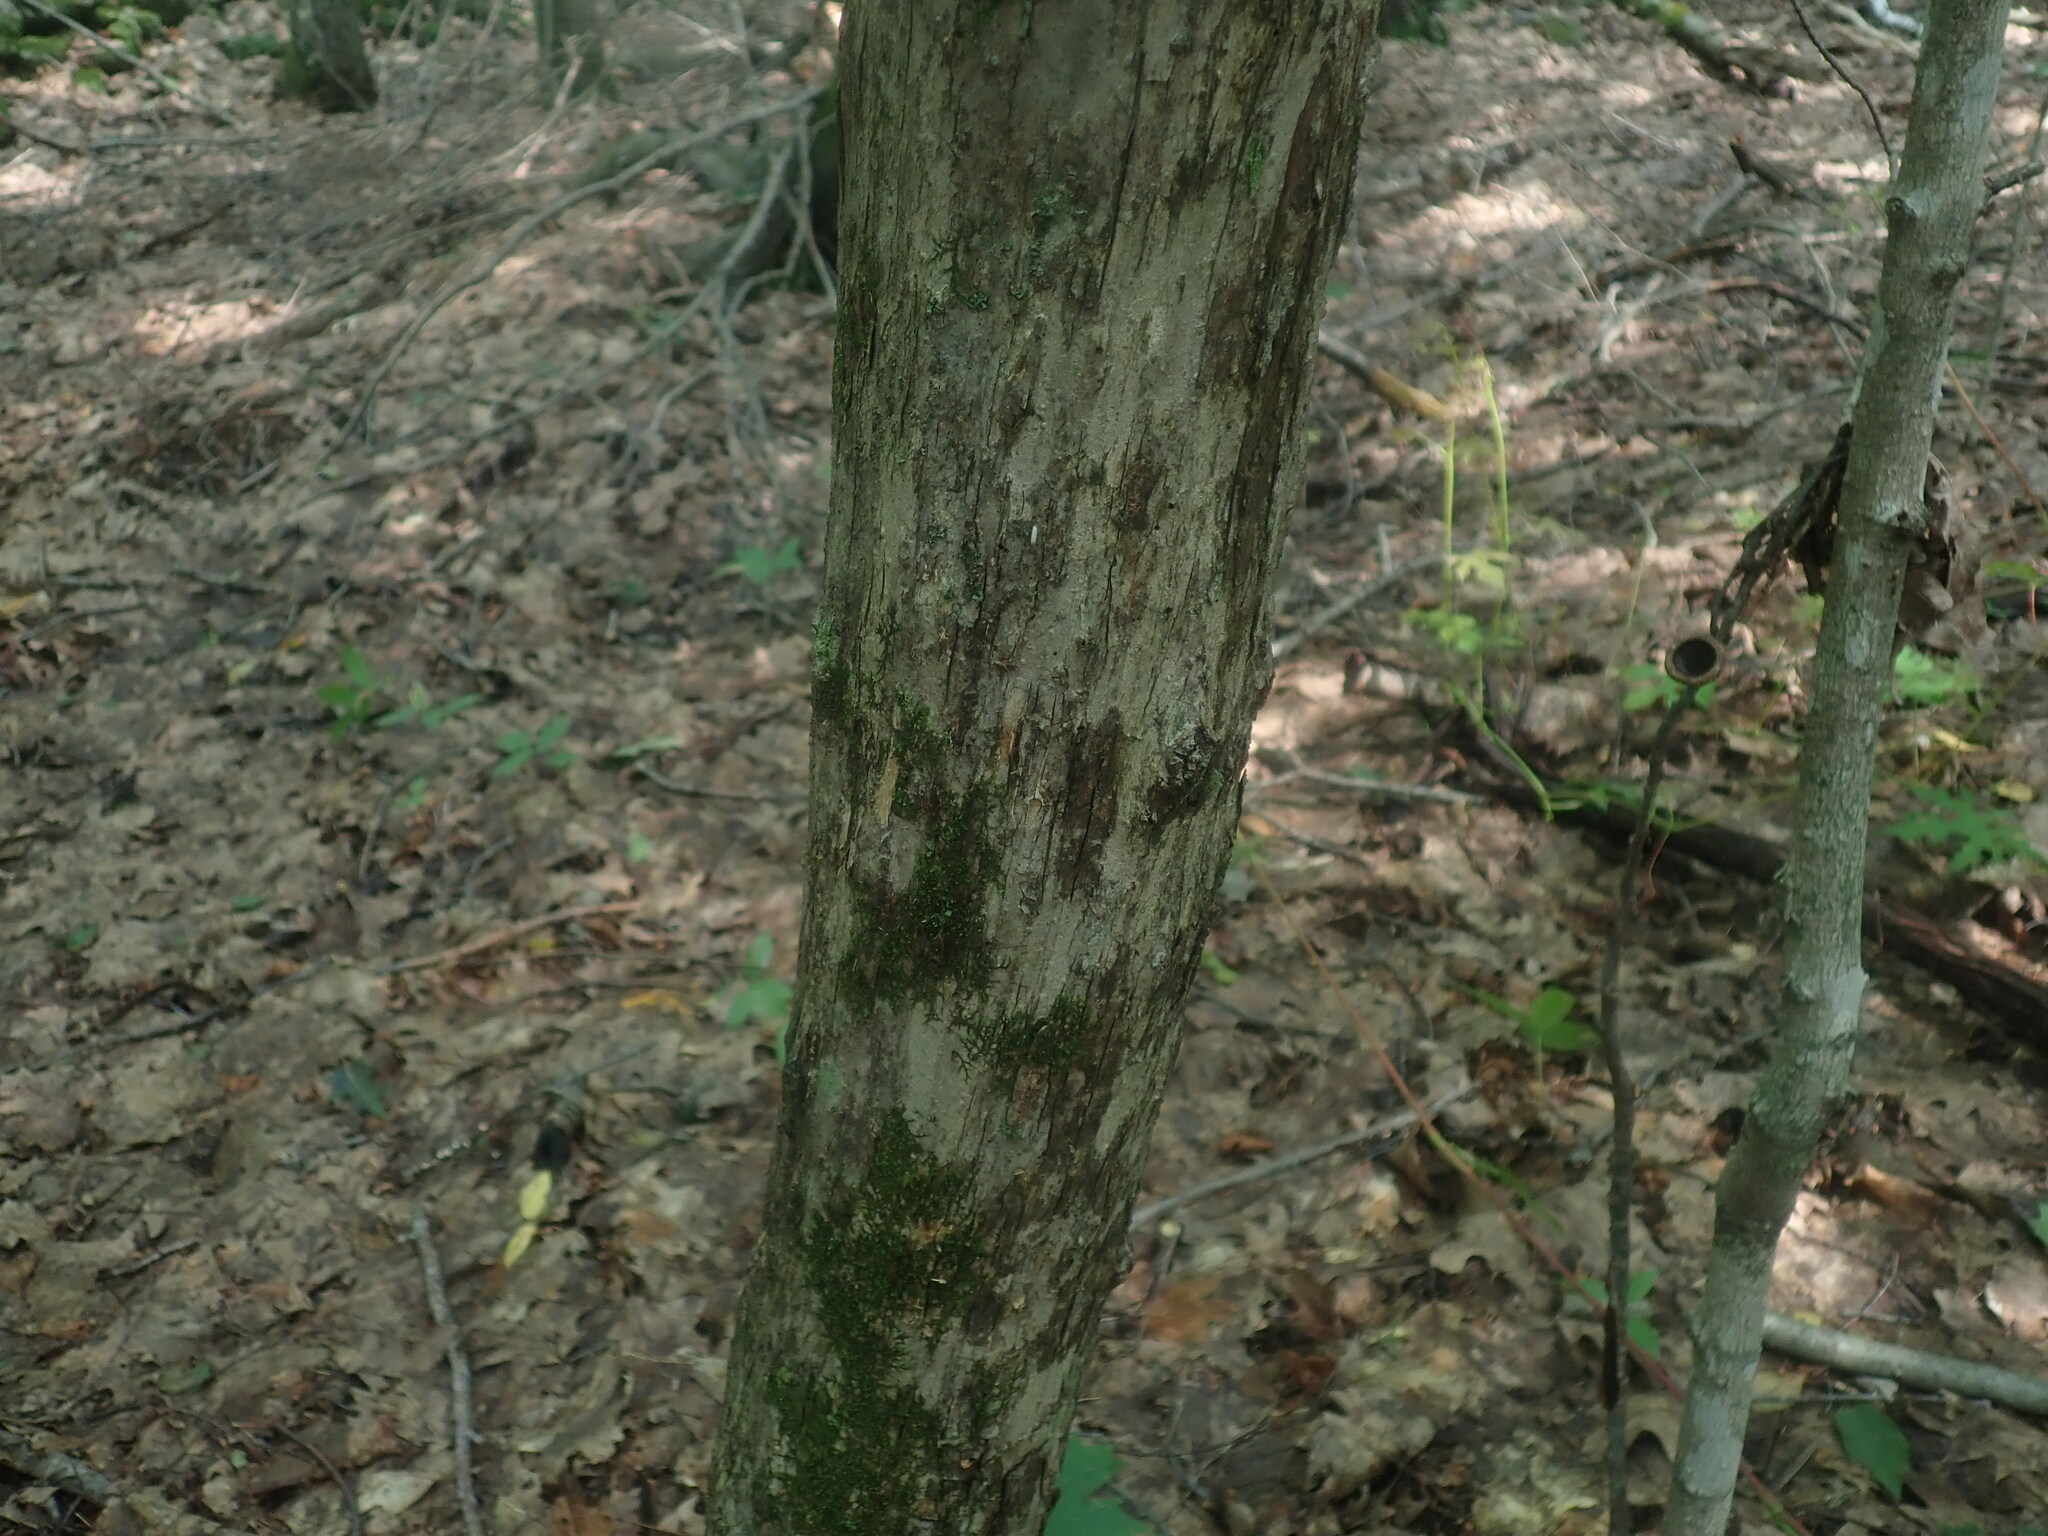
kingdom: Plantae
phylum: Tracheophyta
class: Magnoliopsida
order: Fagales
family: Betulaceae
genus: Ostrya
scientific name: Ostrya virginiana
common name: Ironwood
